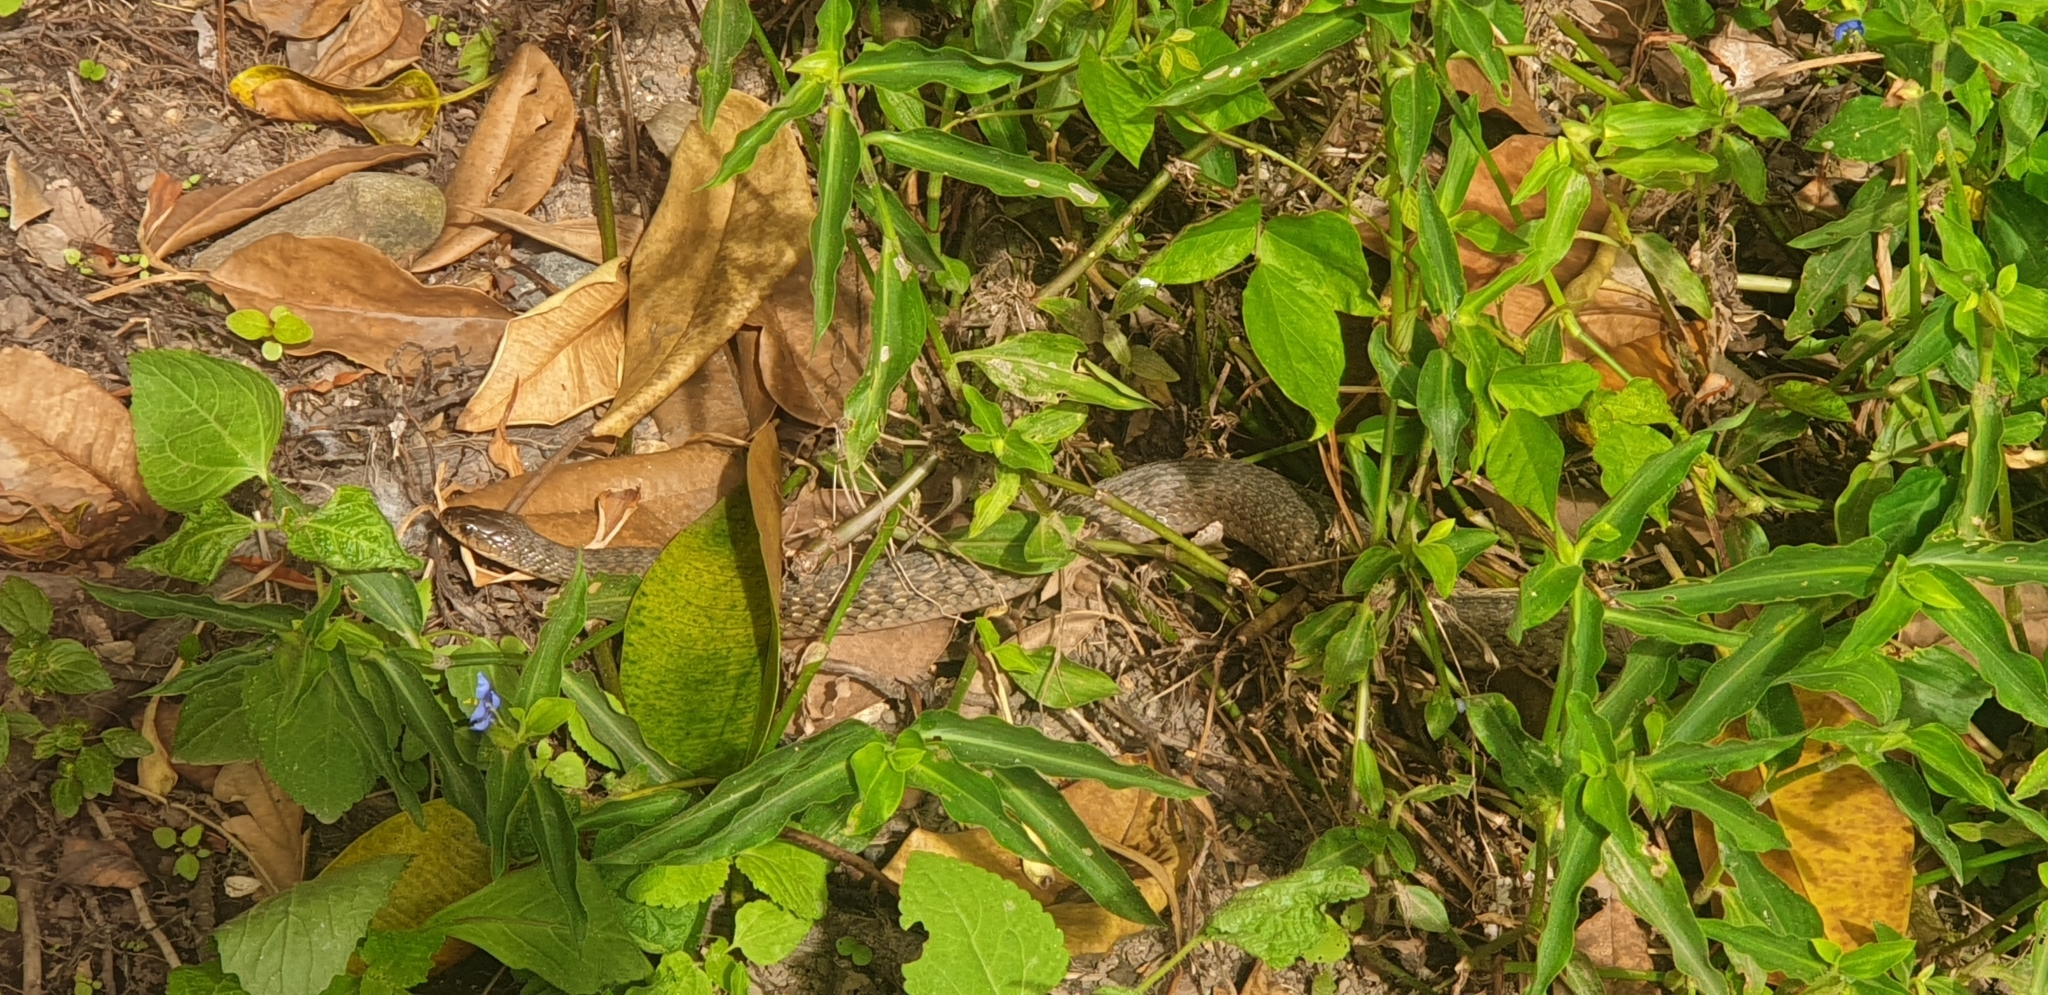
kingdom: Animalia
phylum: Chordata
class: Squamata
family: Colubridae
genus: Tropidonophis
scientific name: Tropidonophis mairii
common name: Common keelback
